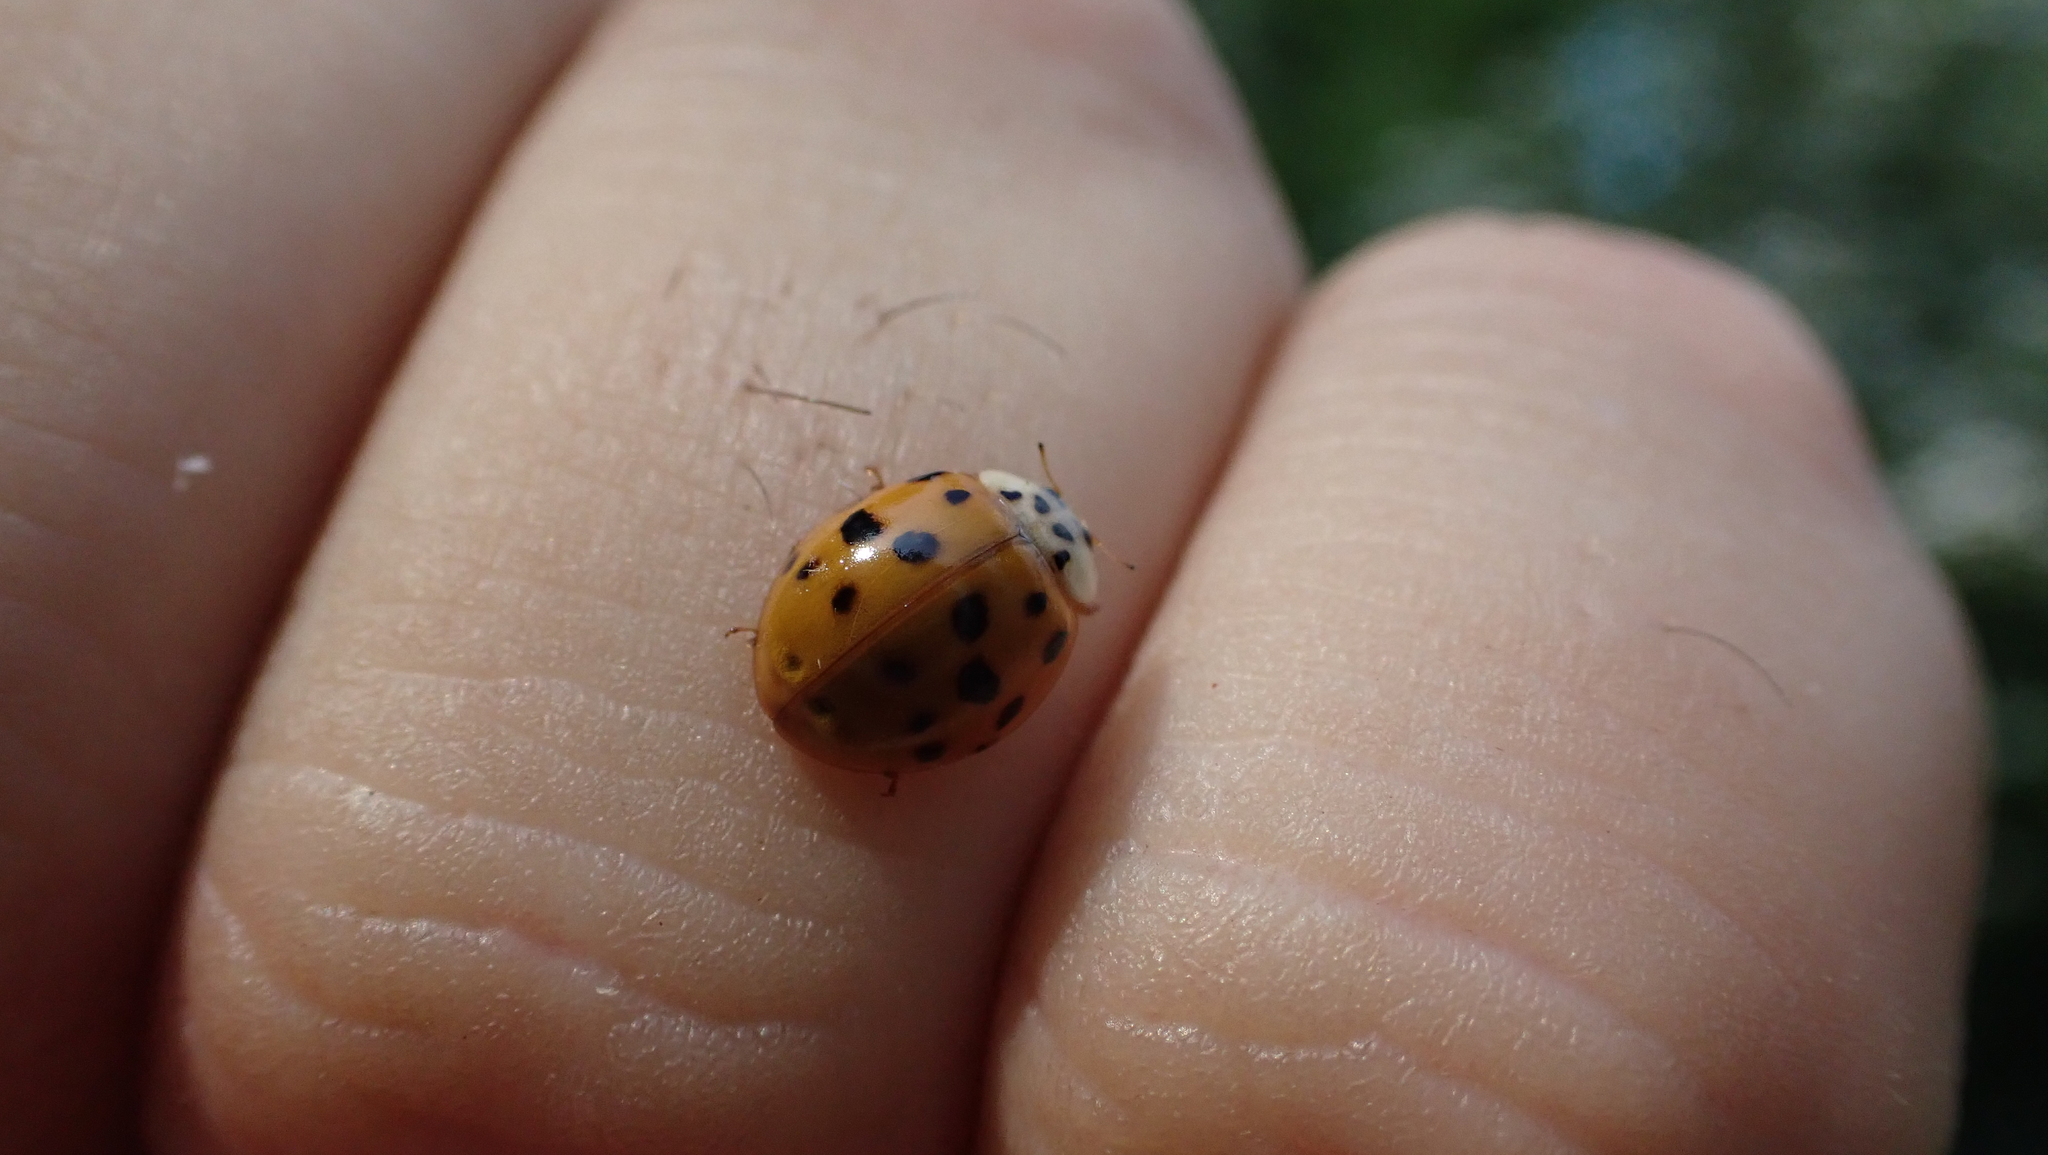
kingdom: Animalia
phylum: Arthropoda
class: Insecta
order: Coleoptera
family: Coccinellidae
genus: Harmonia
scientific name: Harmonia axyridis
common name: Harlequin ladybird
